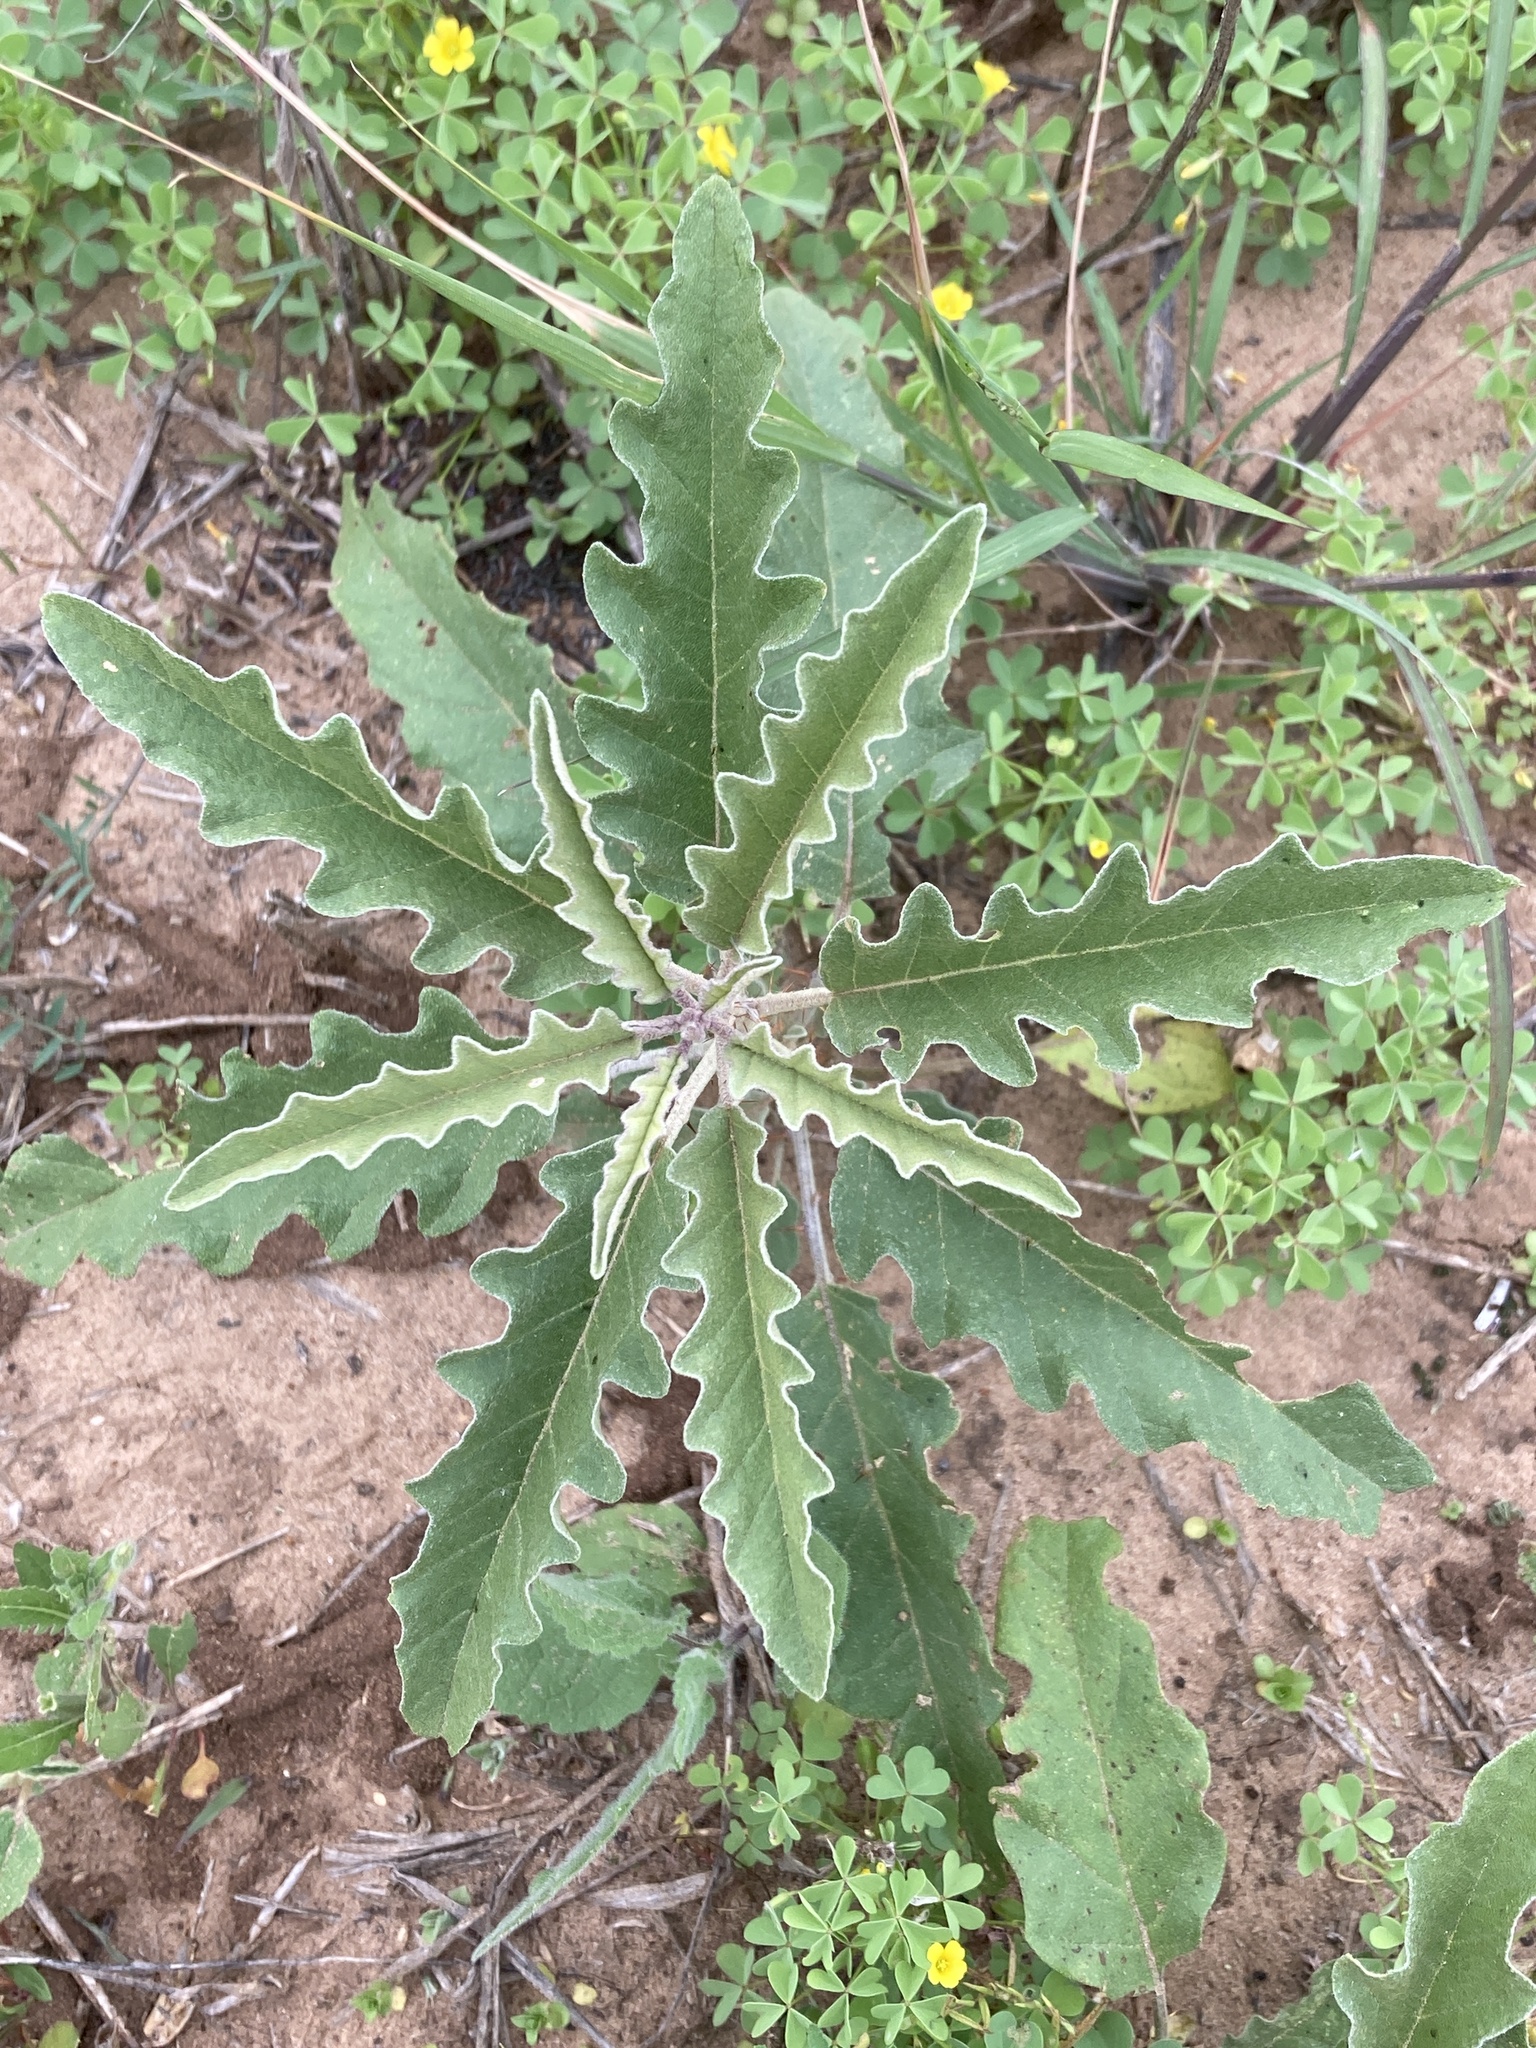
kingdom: Plantae
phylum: Tracheophyta
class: Magnoliopsida
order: Solanales
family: Solanaceae
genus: Solanum
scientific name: Solanum elaeagnifolium
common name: Silverleaf nightshade
